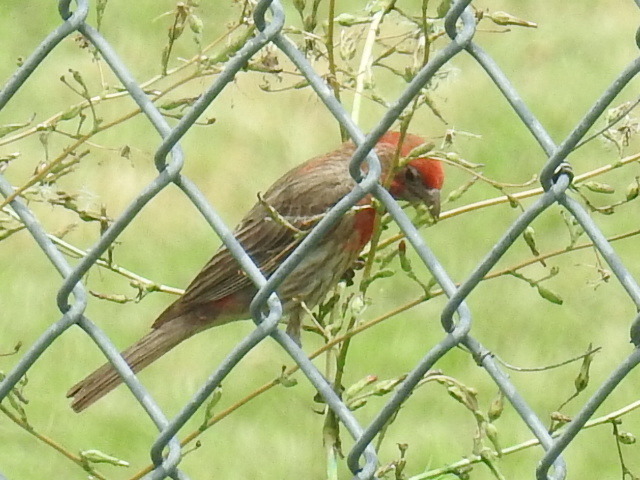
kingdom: Animalia
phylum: Chordata
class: Aves
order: Passeriformes
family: Fringillidae
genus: Haemorhous
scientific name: Haemorhous mexicanus
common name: House finch
